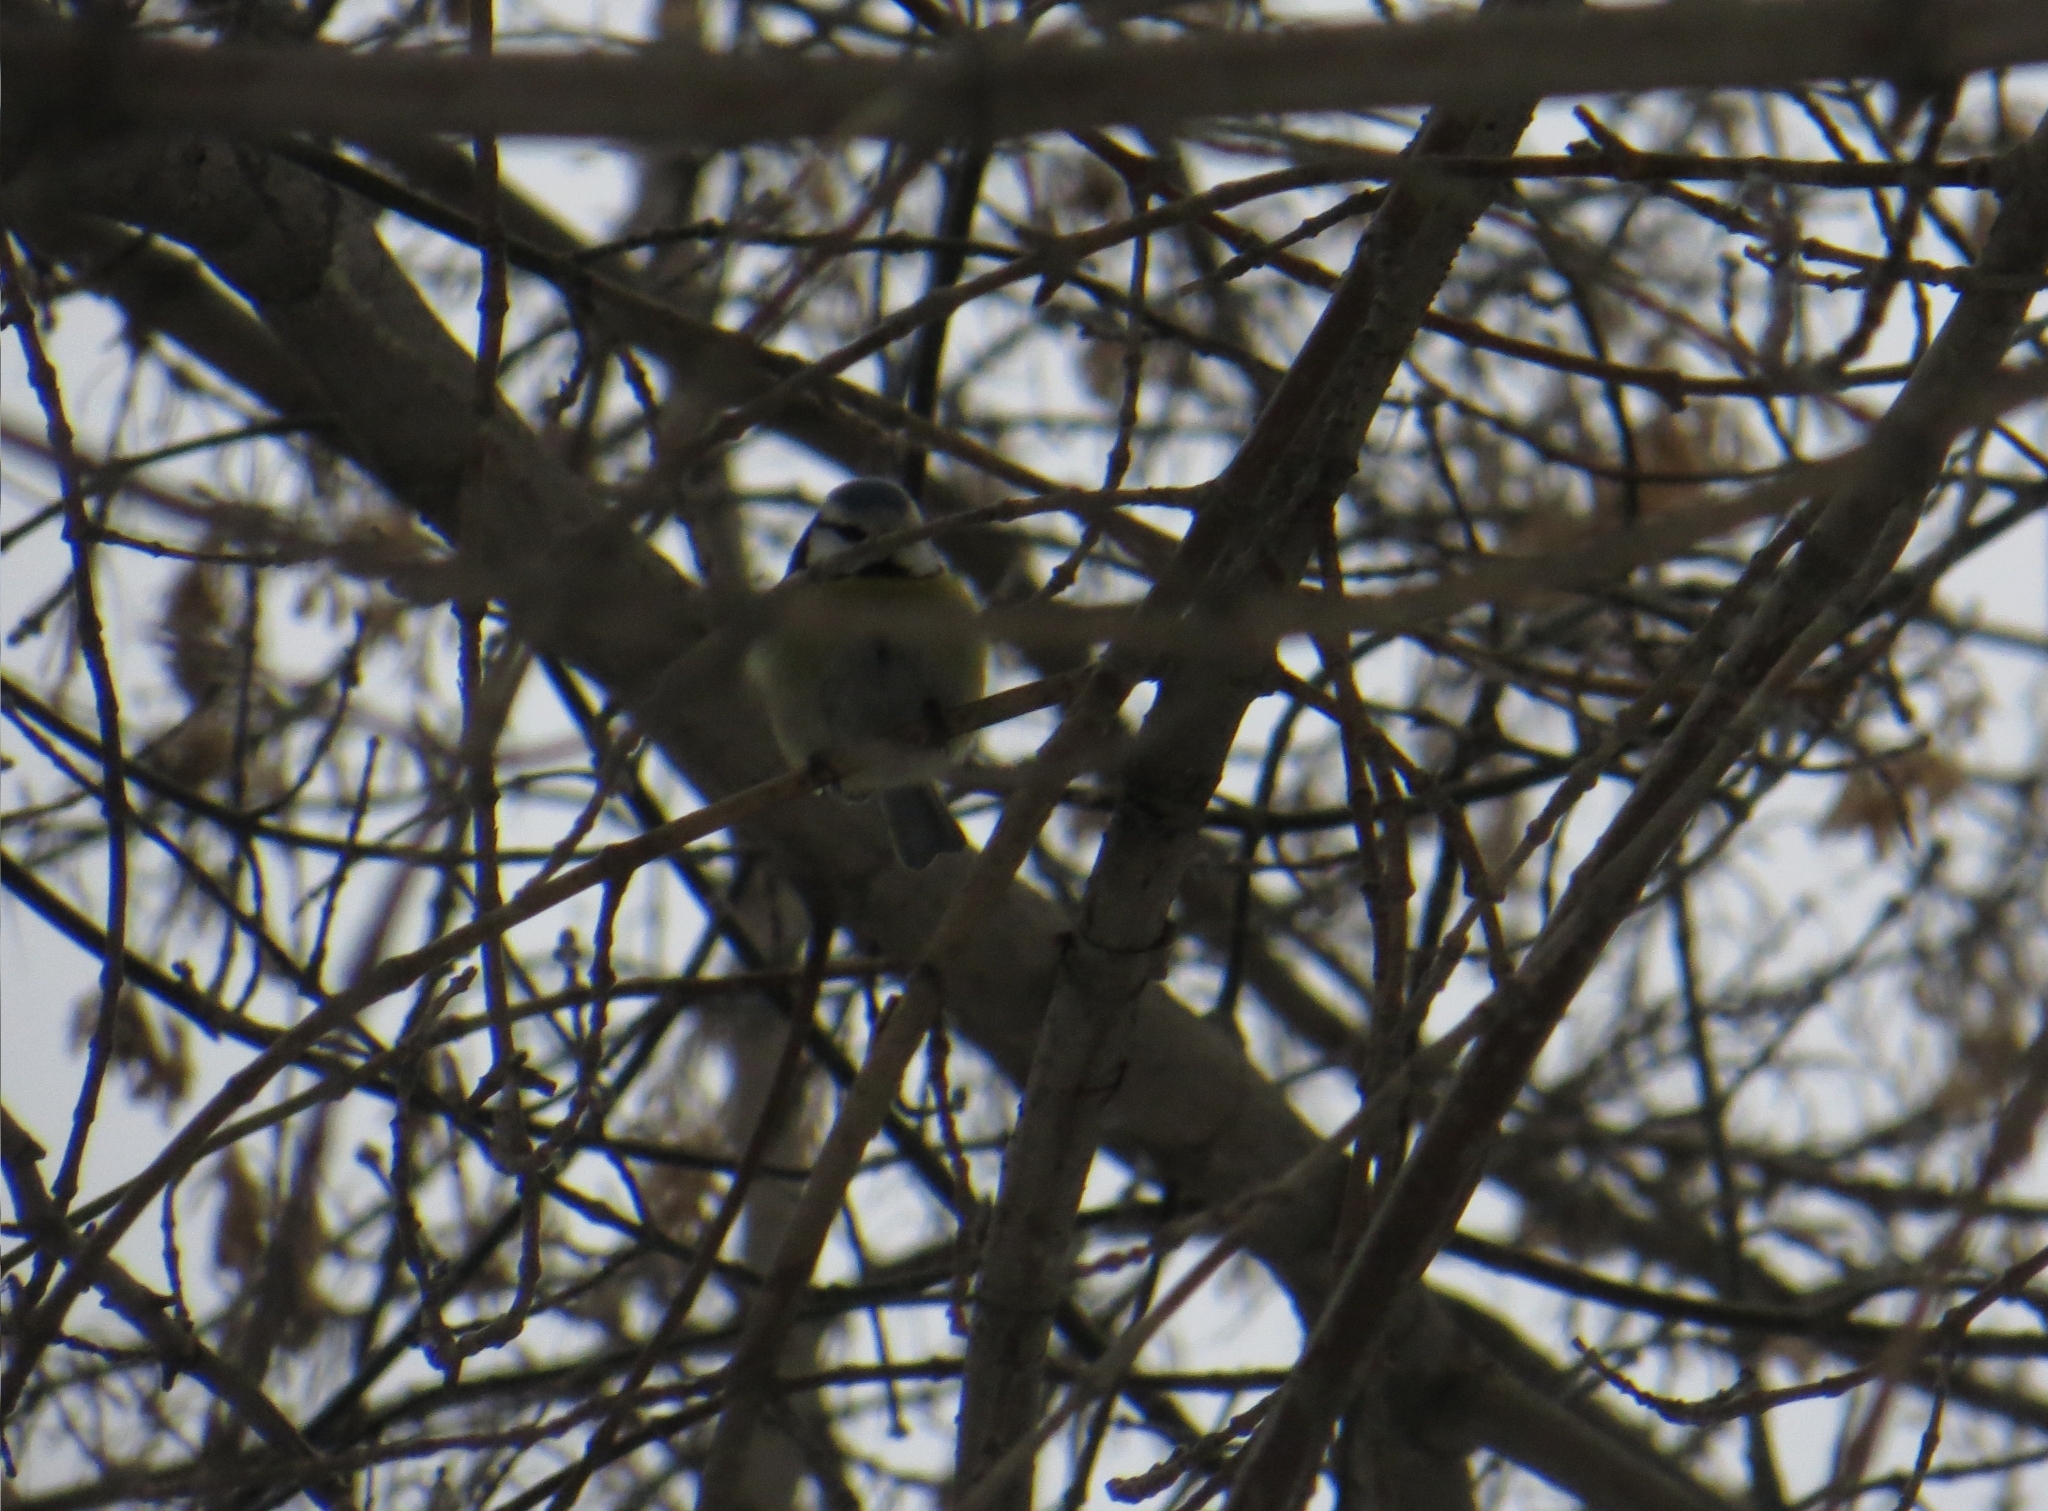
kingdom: Animalia
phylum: Chordata
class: Aves
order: Passeriformes
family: Paridae
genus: Cyanistes
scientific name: Cyanistes caeruleus
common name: Eurasian blue tit
